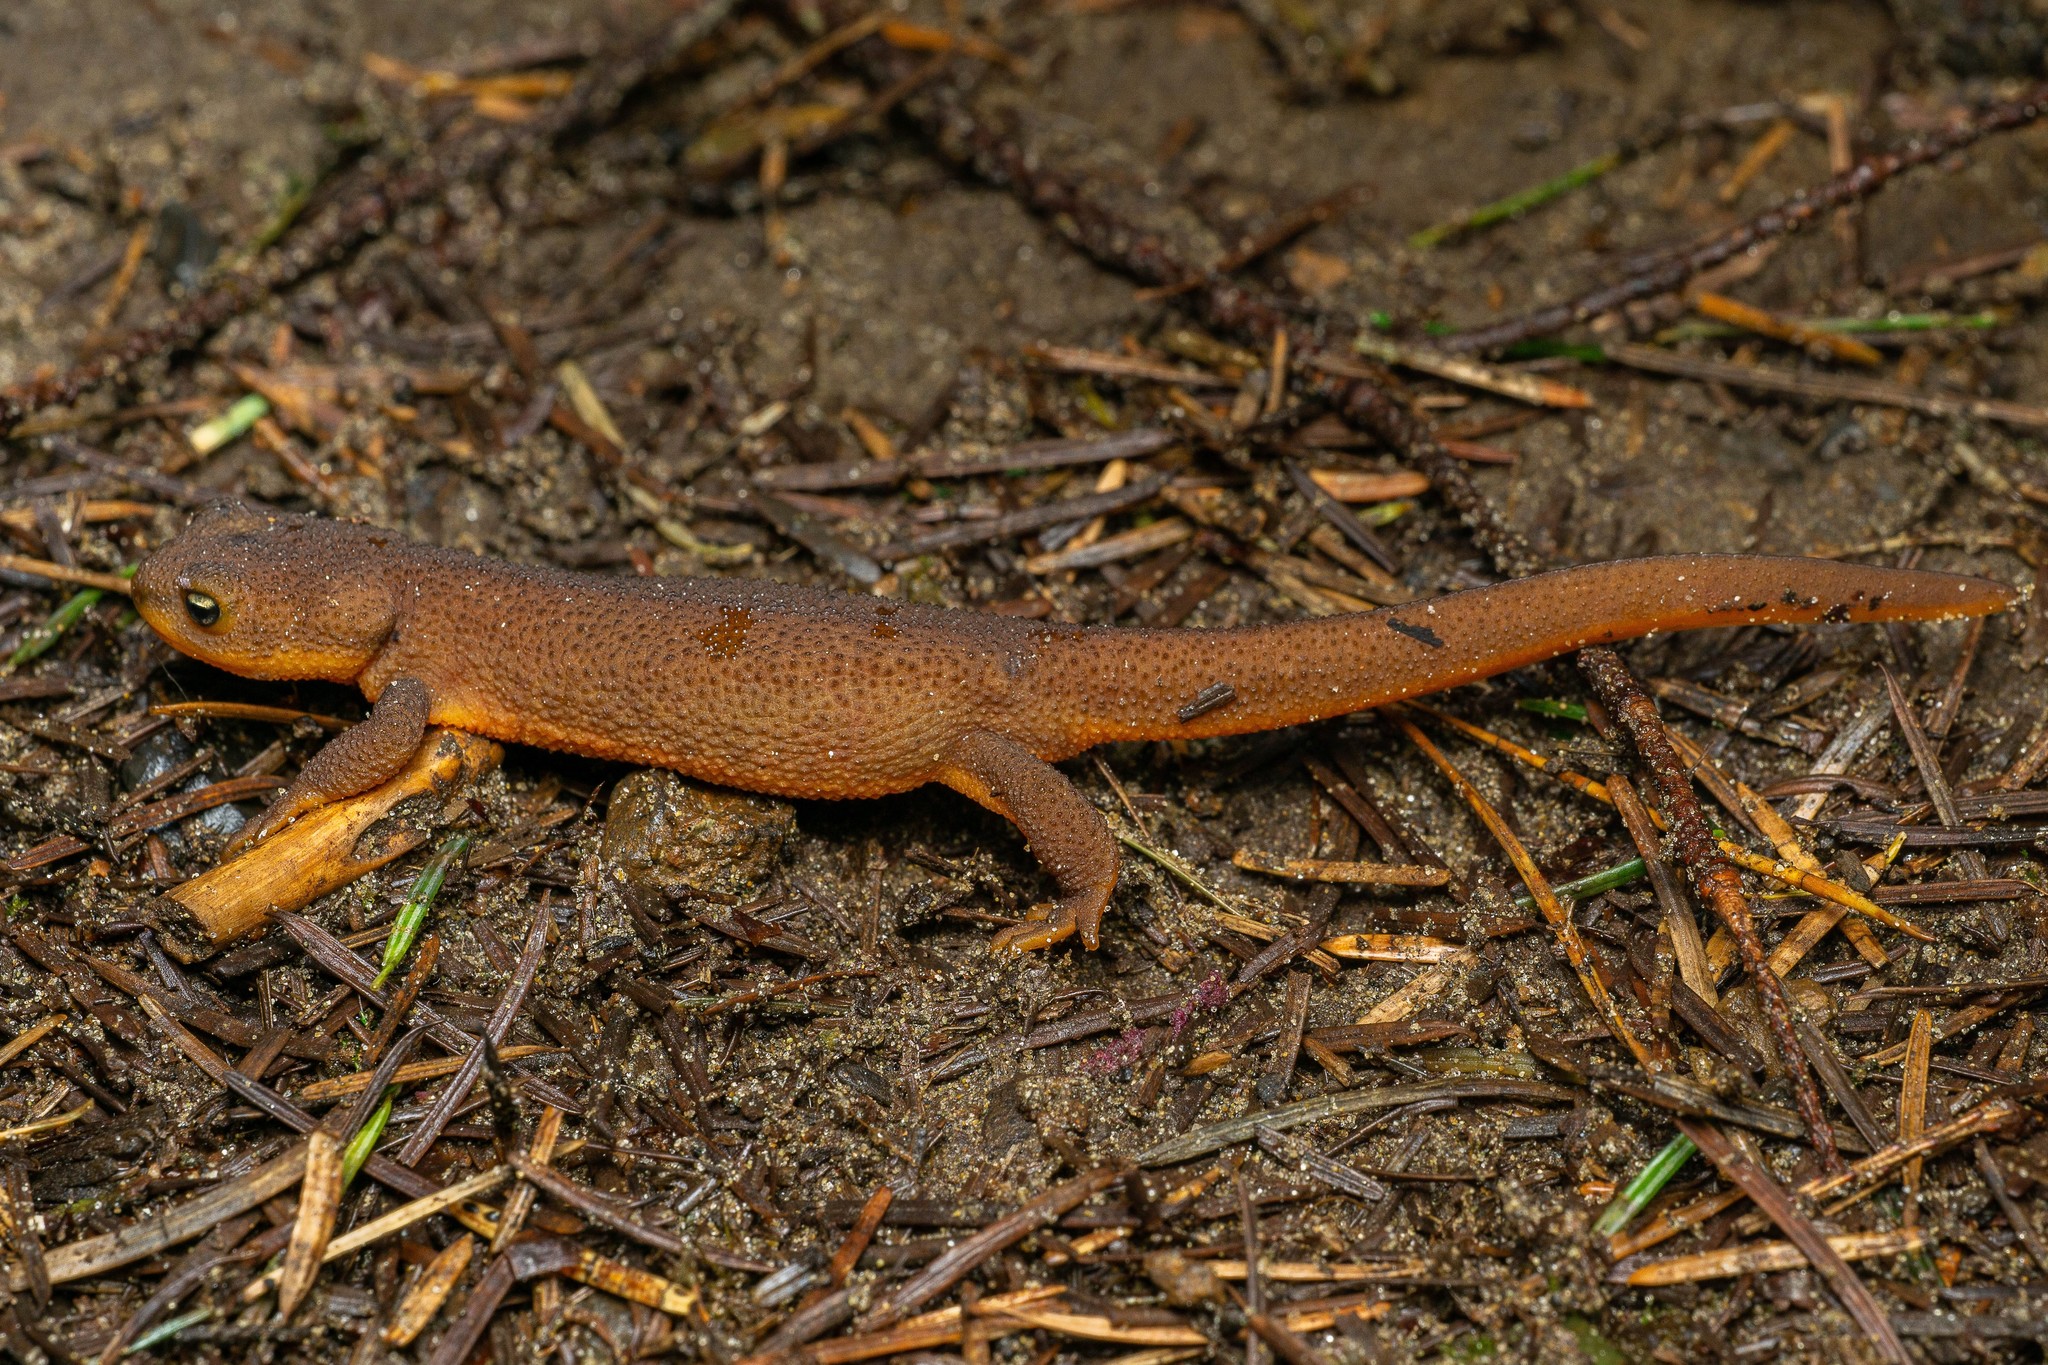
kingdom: Animalia
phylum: Chordata
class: Amphibia
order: Caudata
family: Salamandridae
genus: Taricha
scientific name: Taricha granulosa
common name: Roughskin newt
